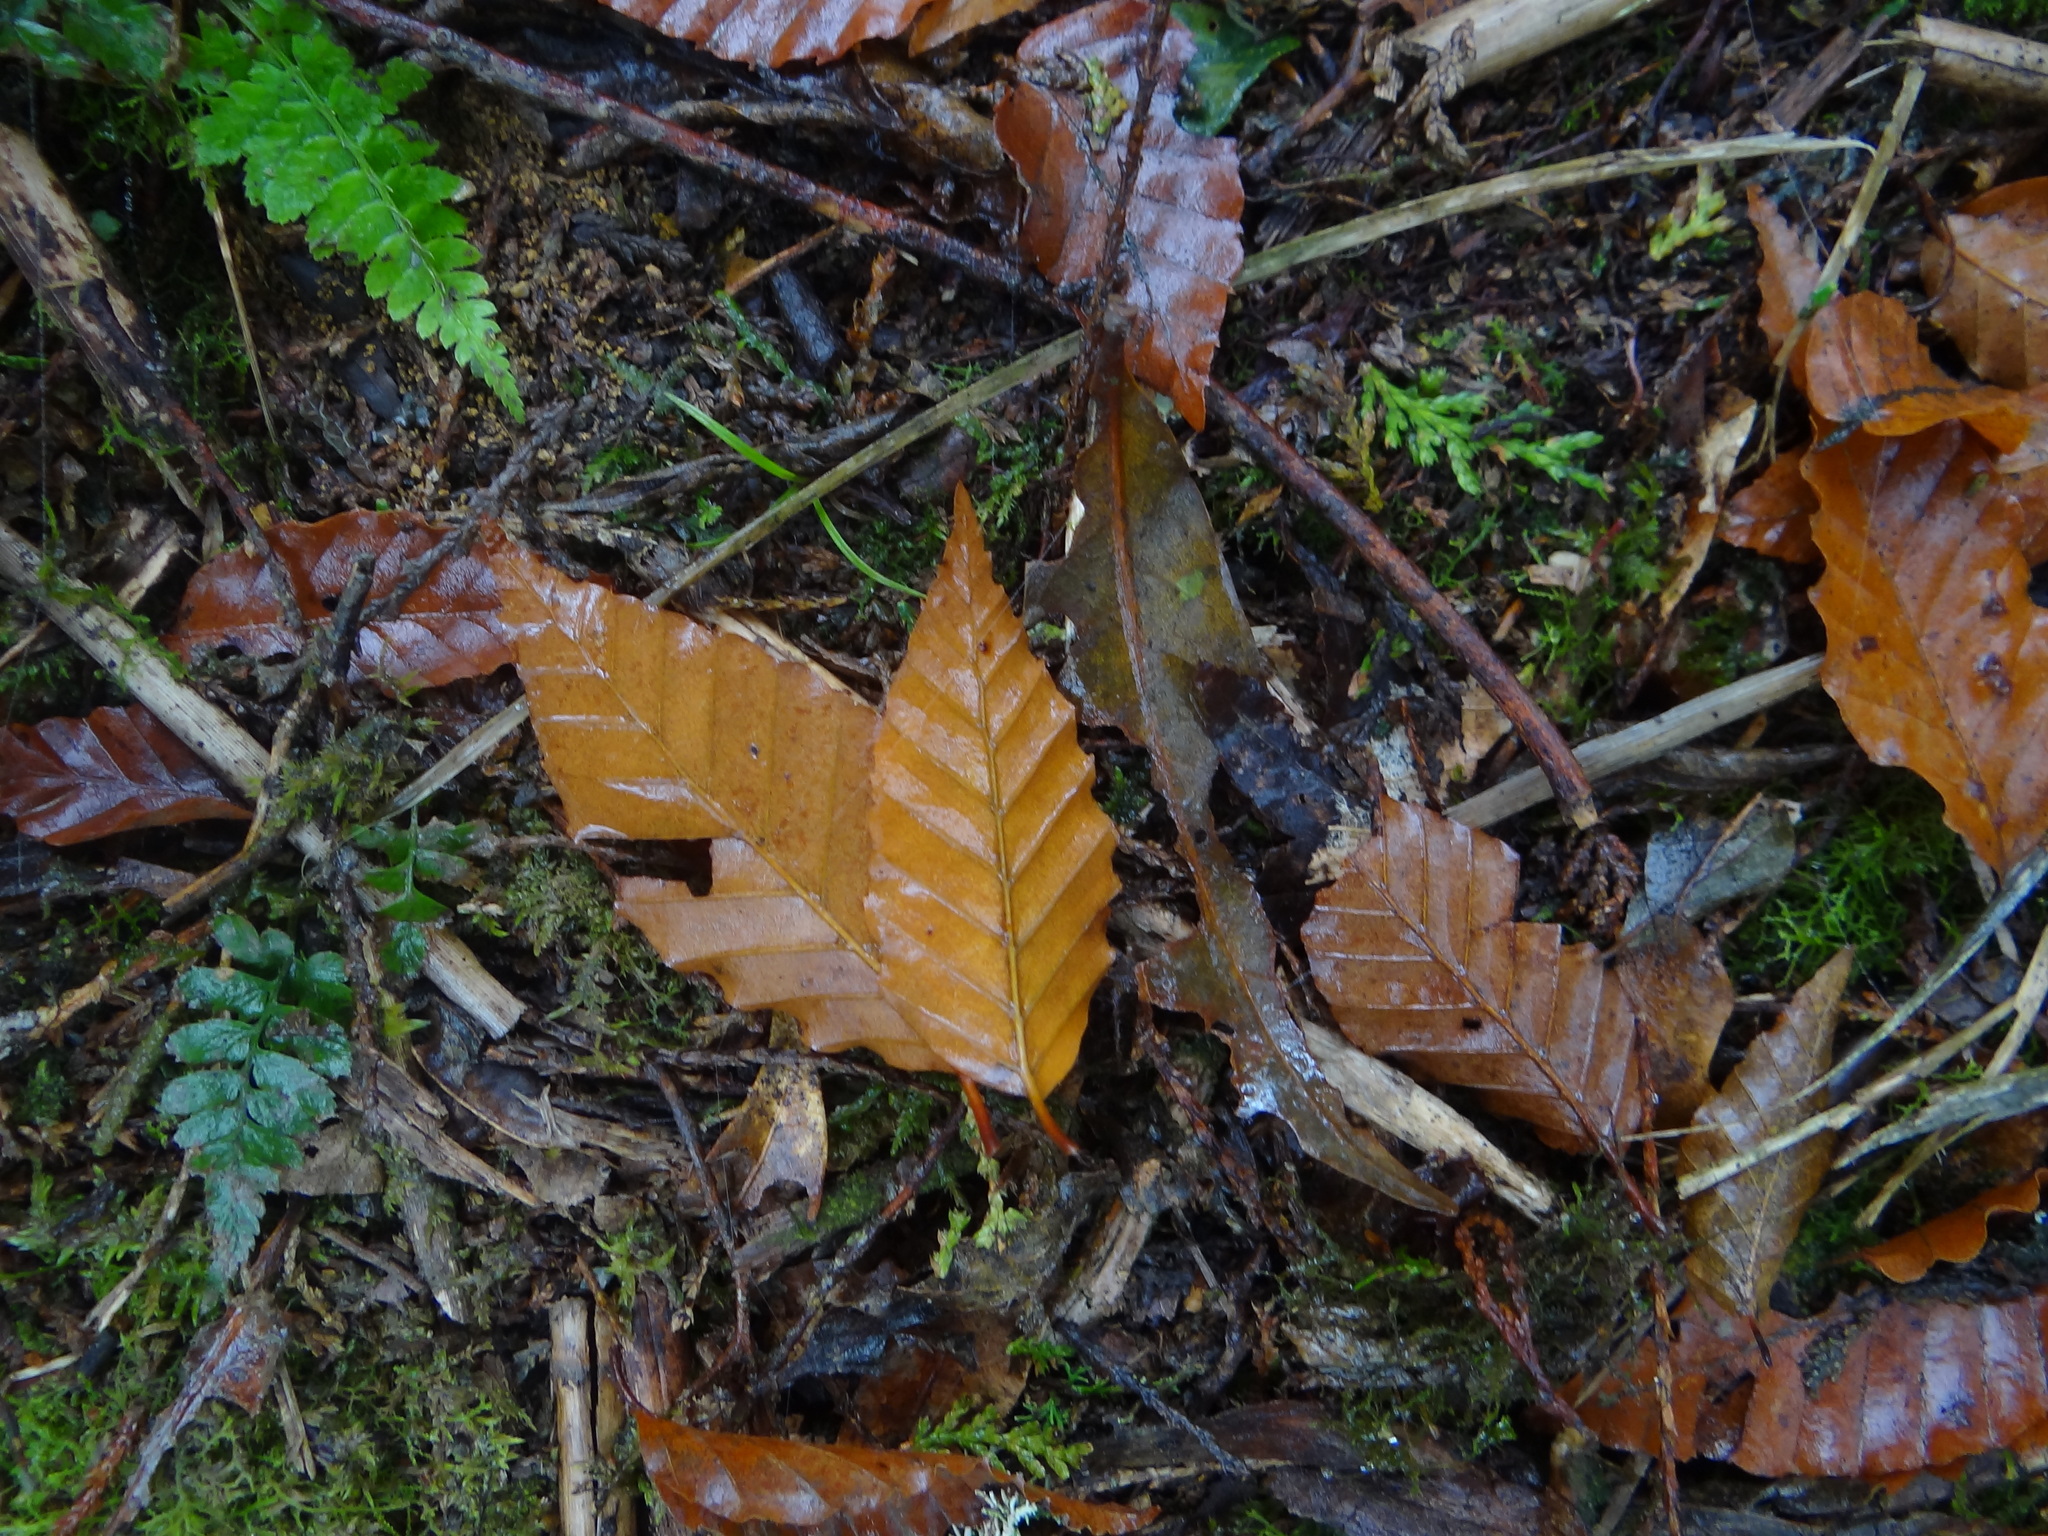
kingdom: Plantae
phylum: Tracheophyta
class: Magnoliopsida
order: Fagales
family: Fagaceae
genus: Fagus
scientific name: Fagus hayatae
